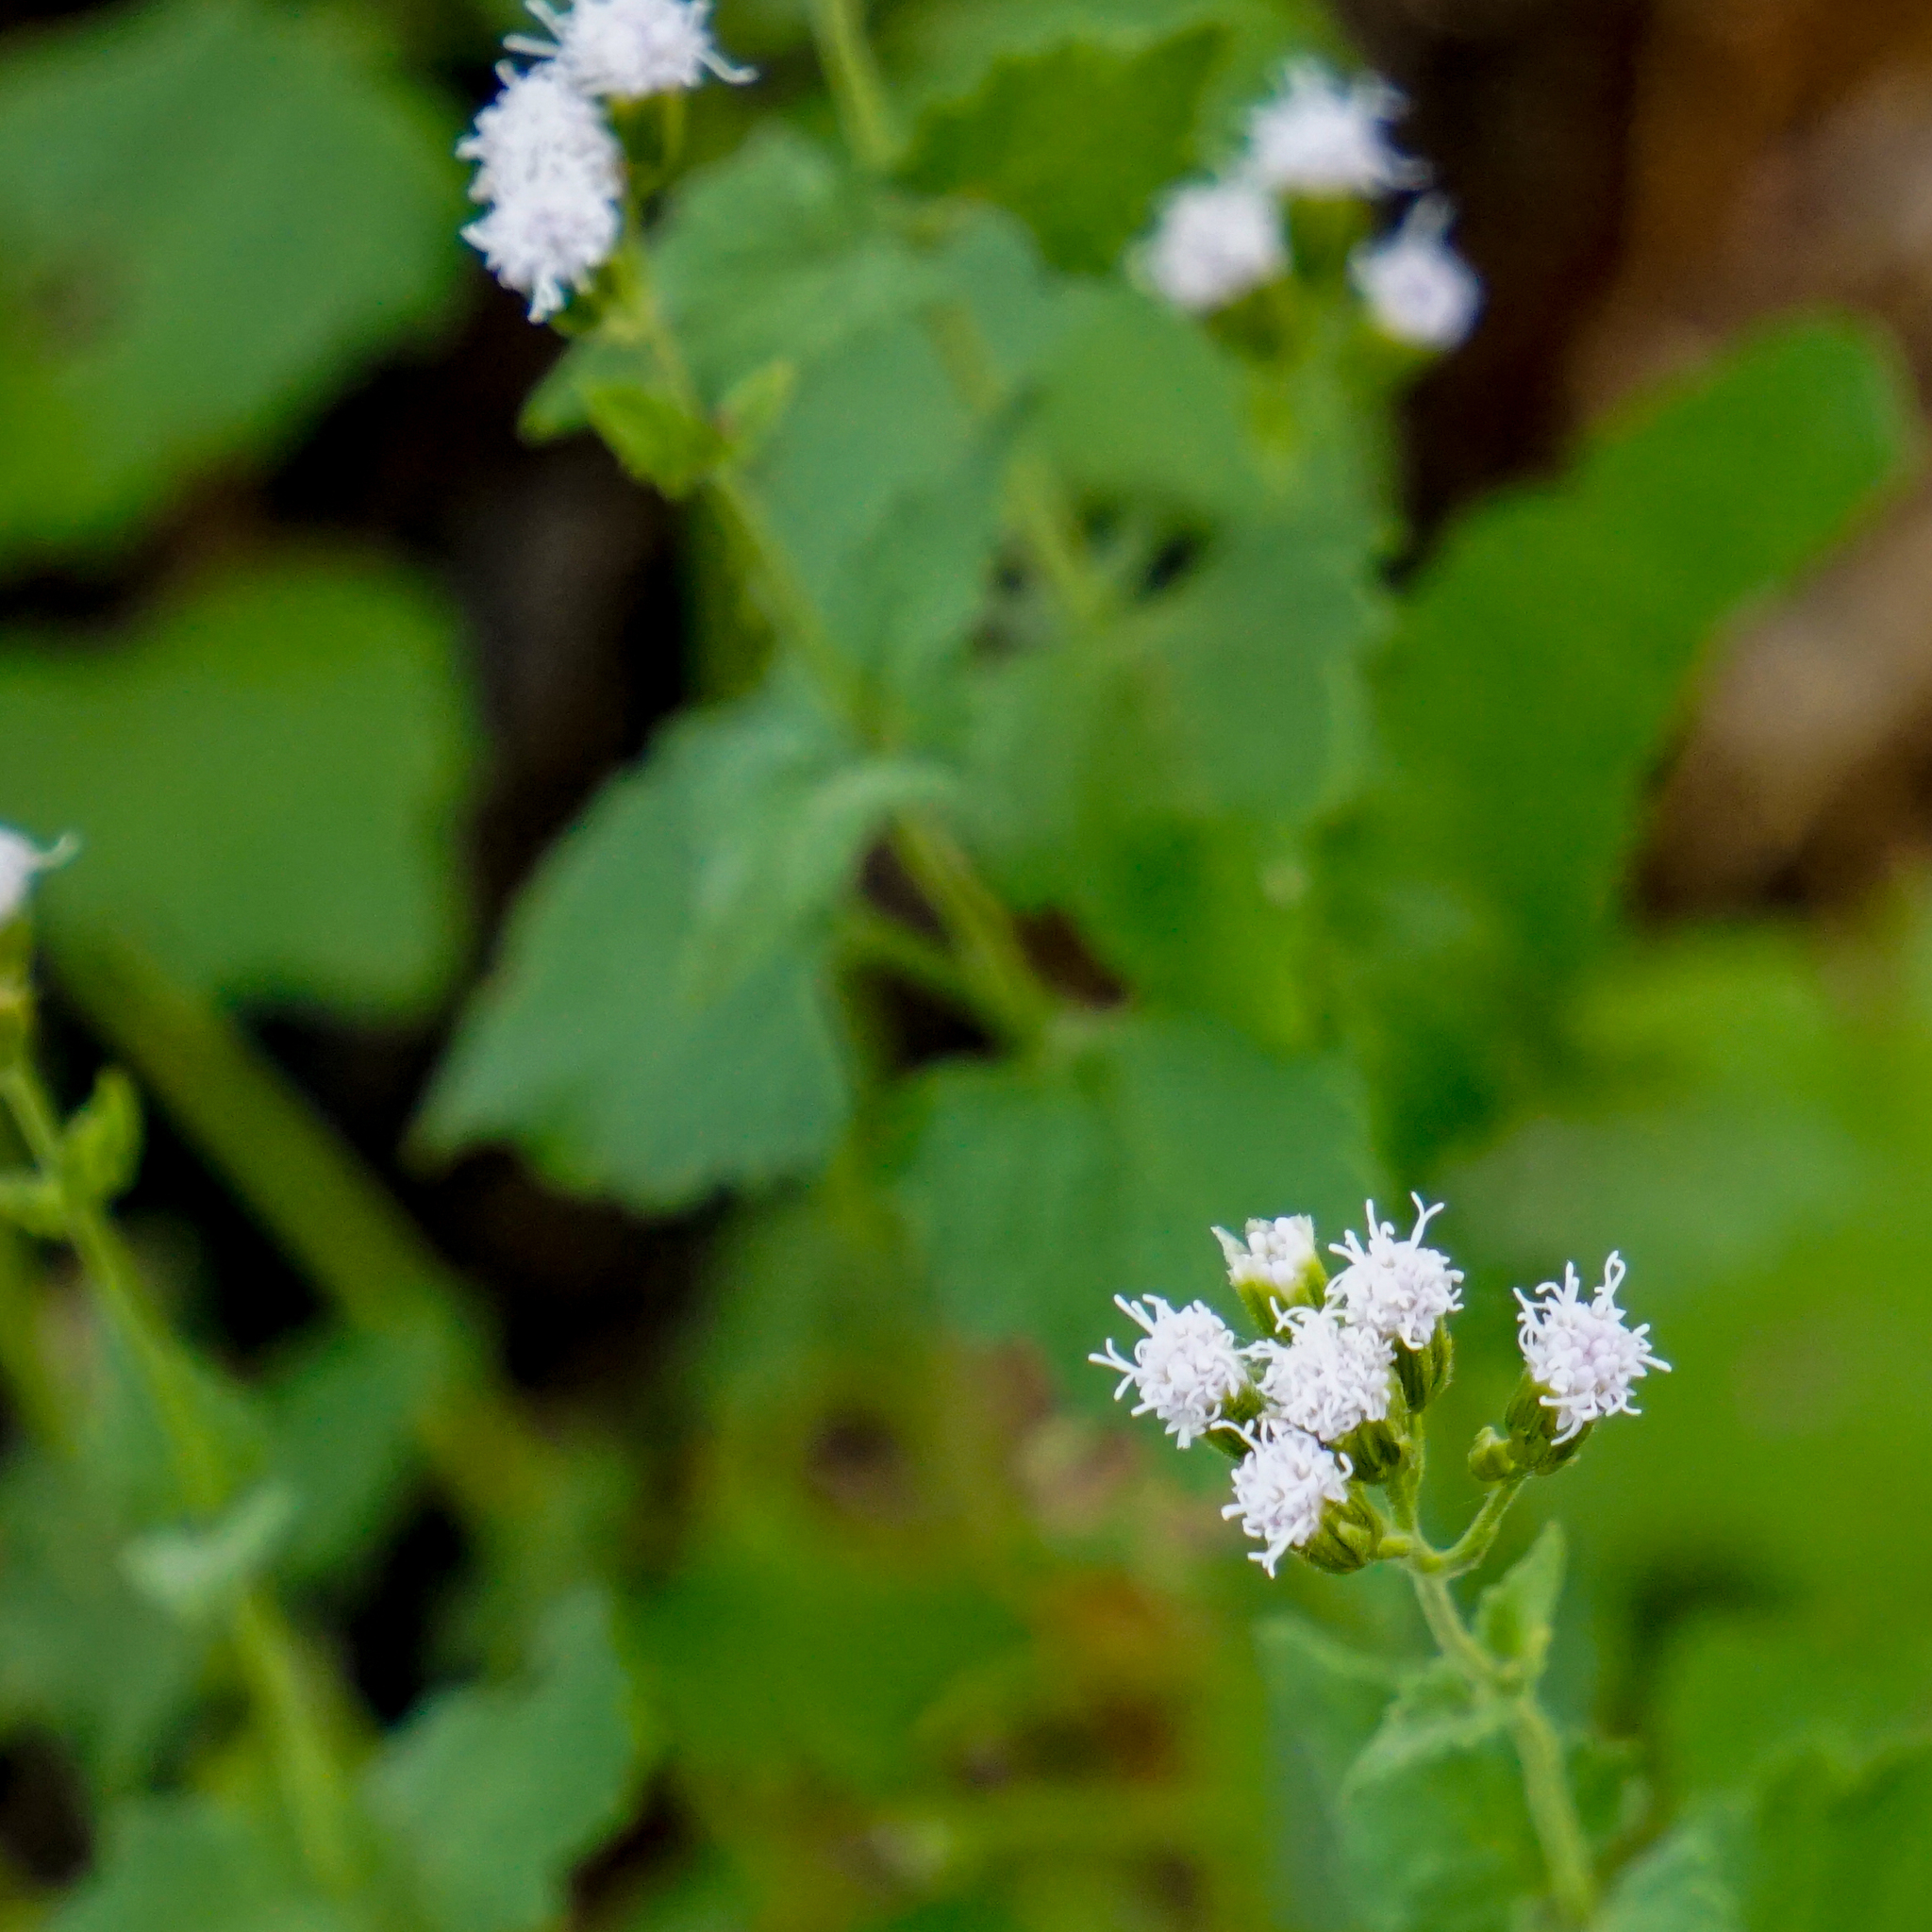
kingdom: Plantae
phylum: Tracheophyta
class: Magnoliopsida
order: Asterales
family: Asteraceae
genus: Ageratina
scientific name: Ageratina altissima
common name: White snakeroot
